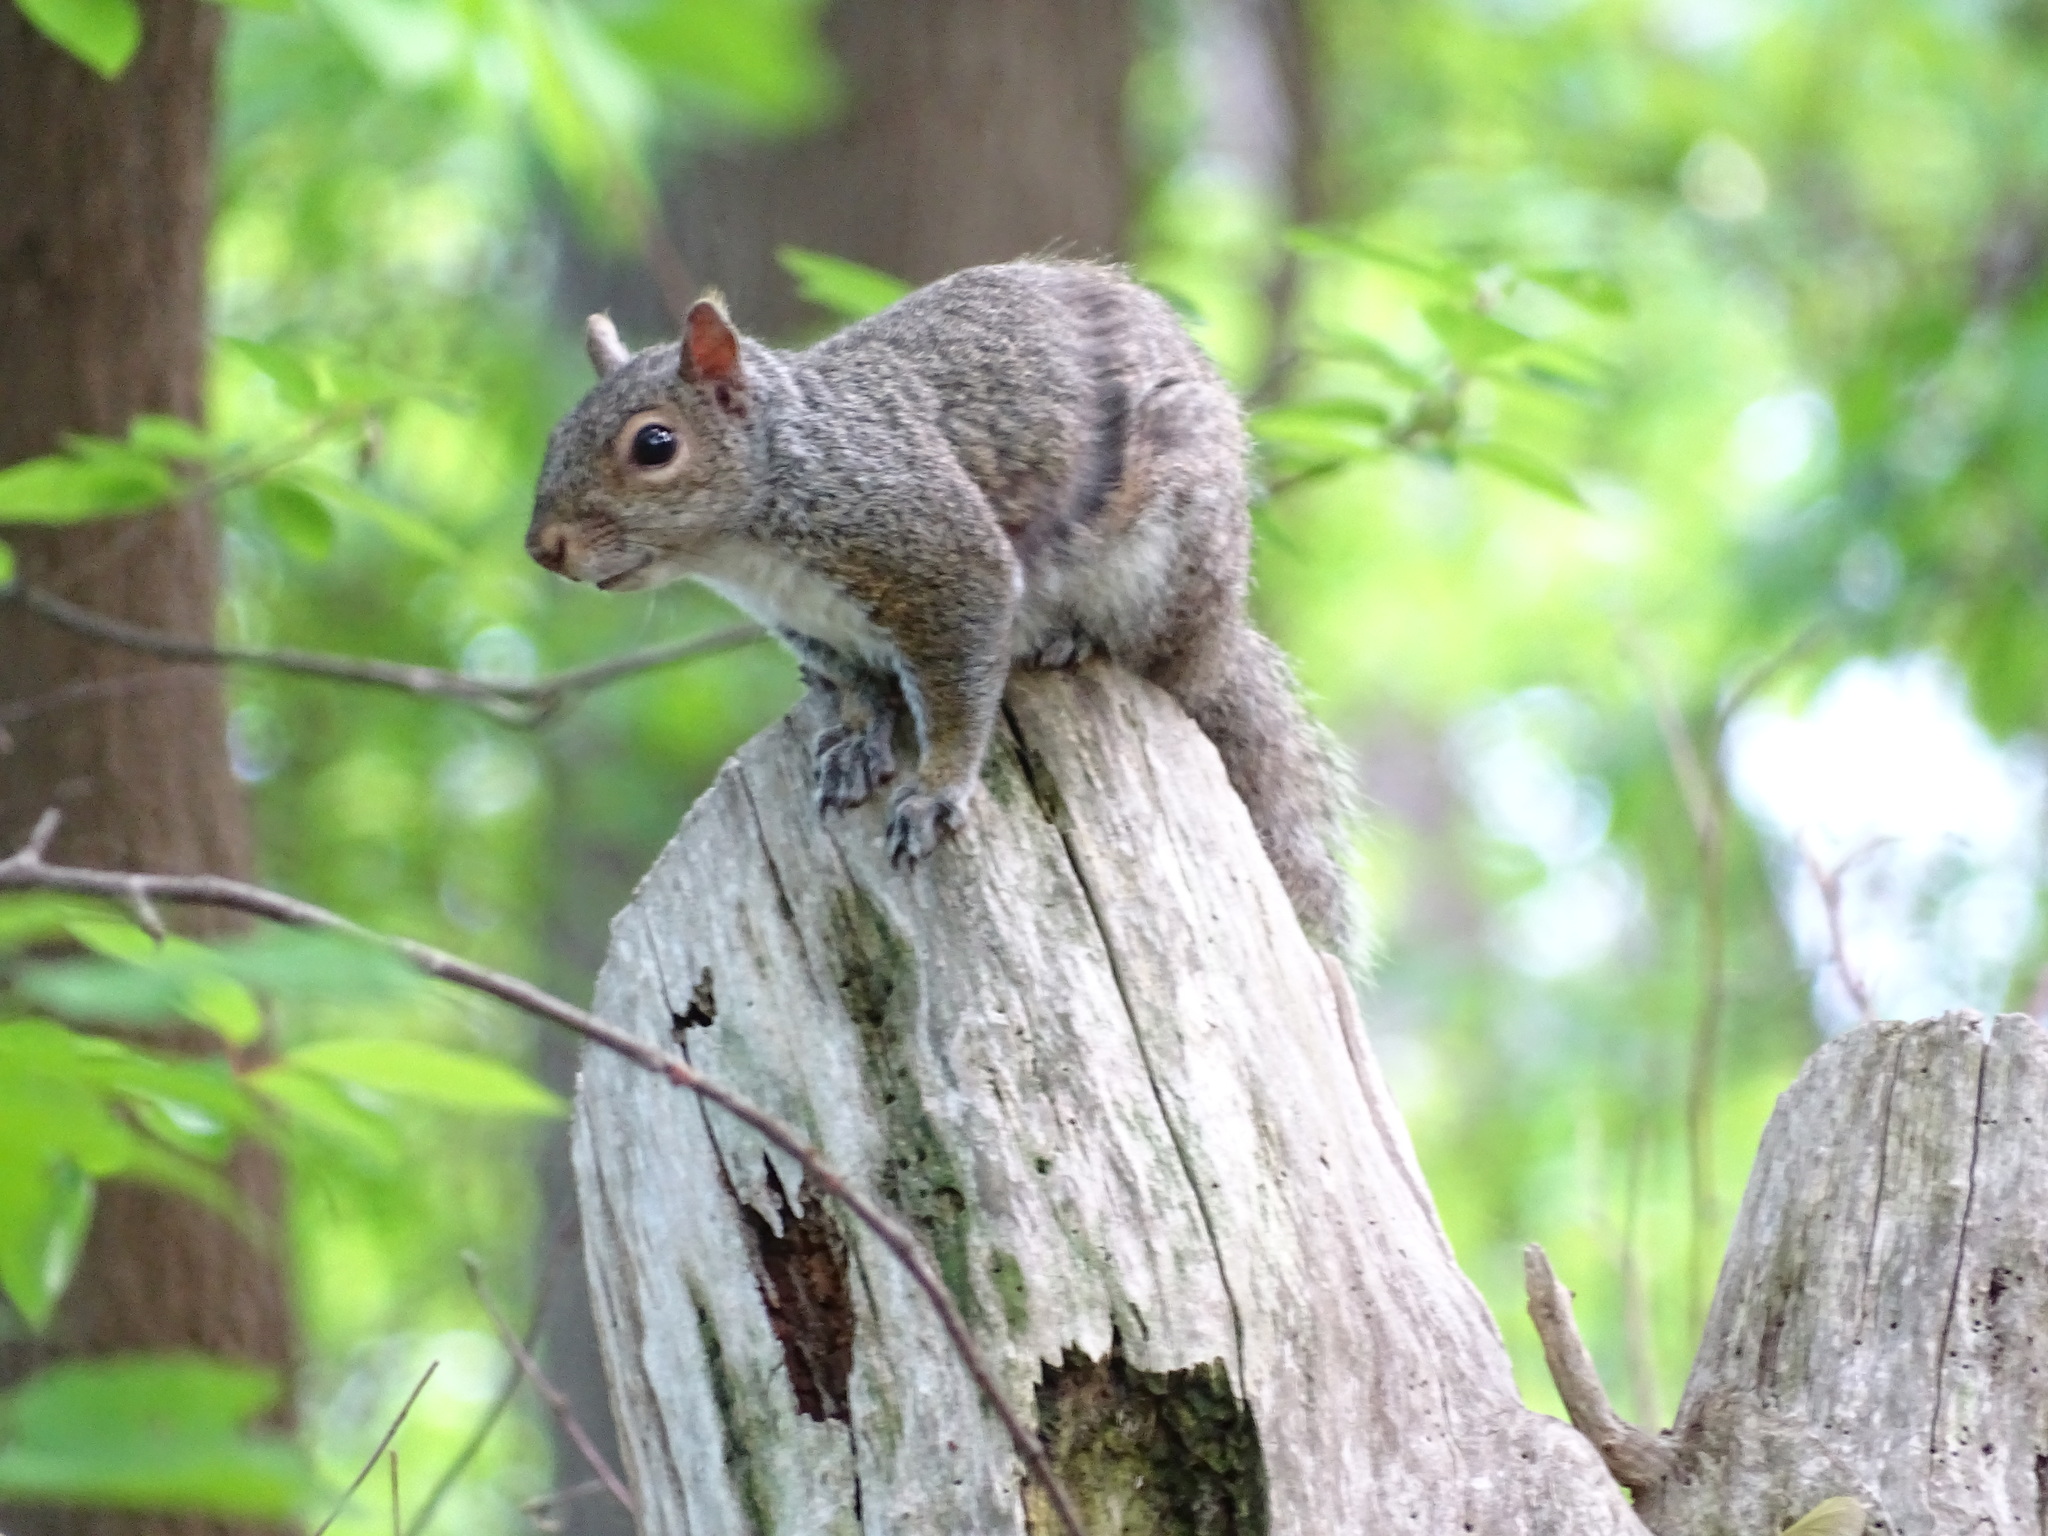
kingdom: Animalia
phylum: Chordata
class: Mammalia
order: Rodentia
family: Sciuridae
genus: Sciurus
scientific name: Sciurus carolinensis
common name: Eastern gray squirrel
